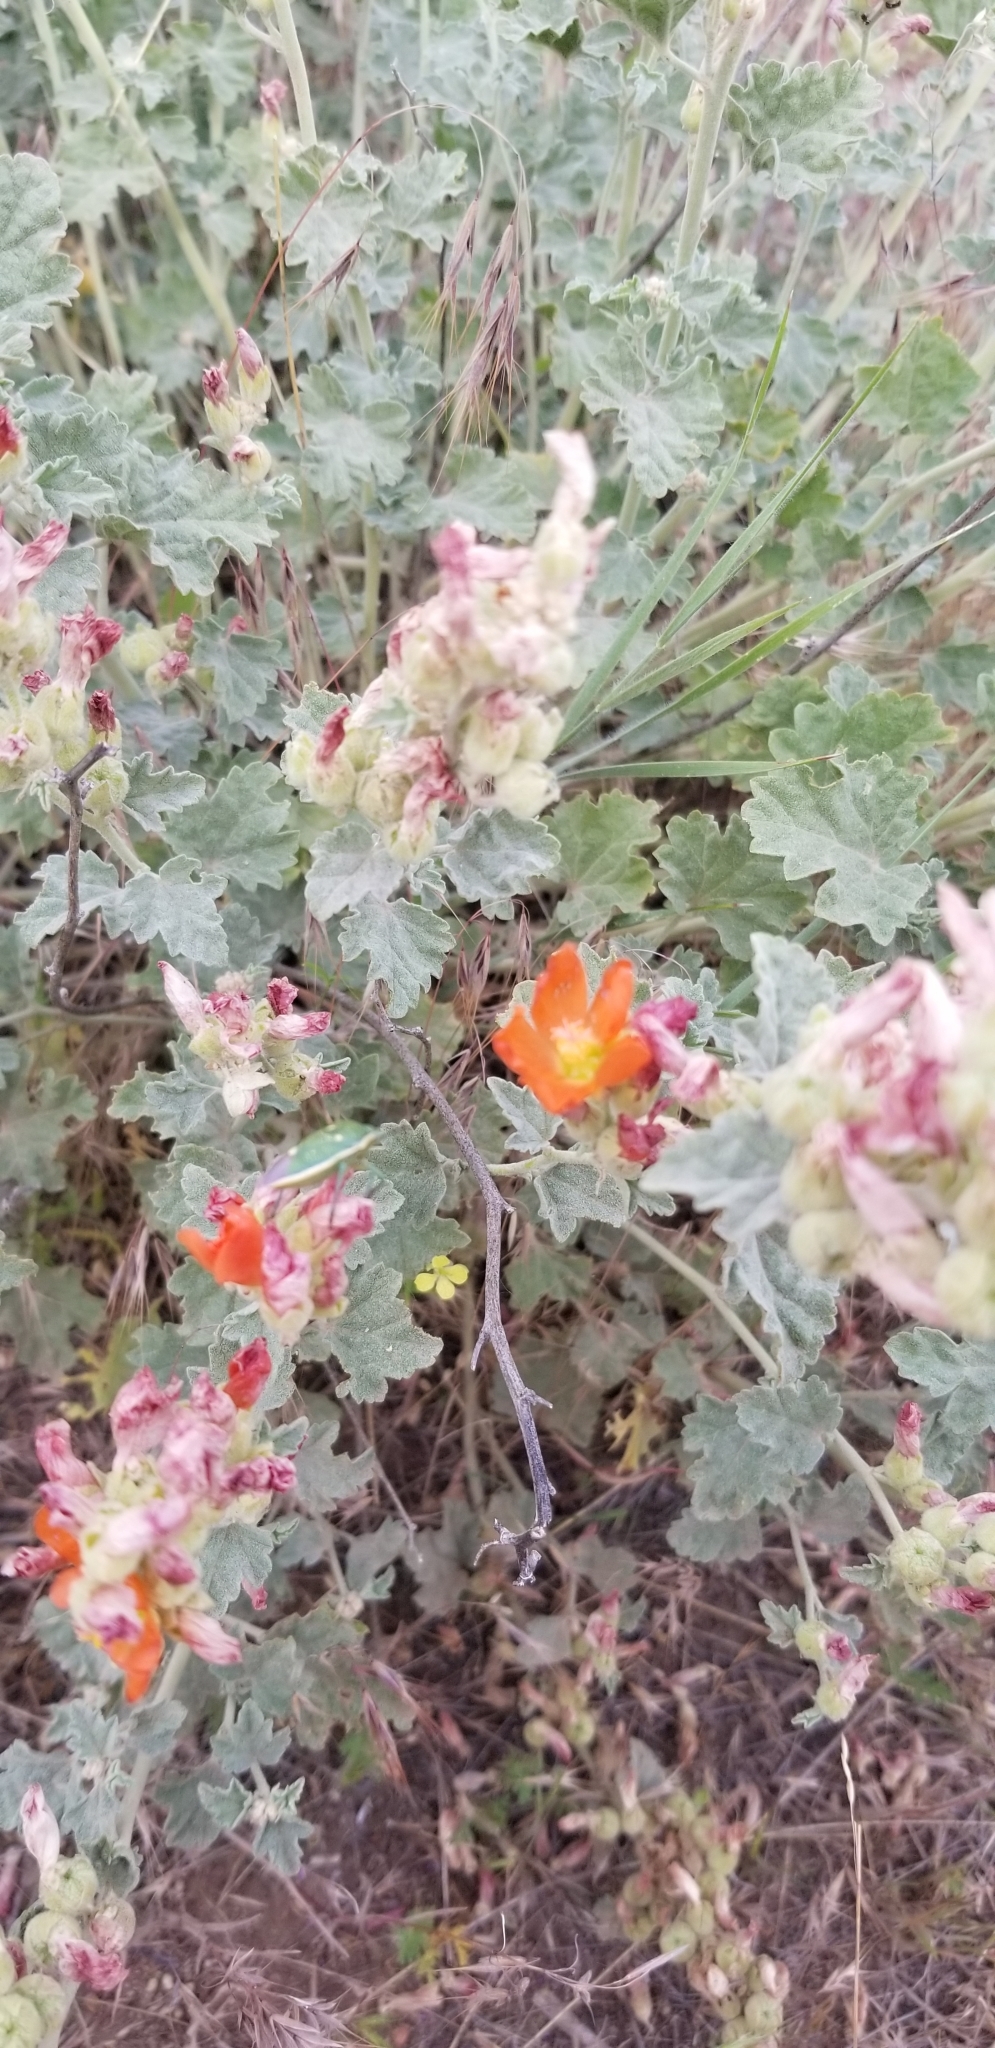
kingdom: Plantae
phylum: Tracheophyta
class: Magnoliopsida
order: Malvales
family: Malvaceae
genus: Sphaeralcea
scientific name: Sphaeralcea munroana
